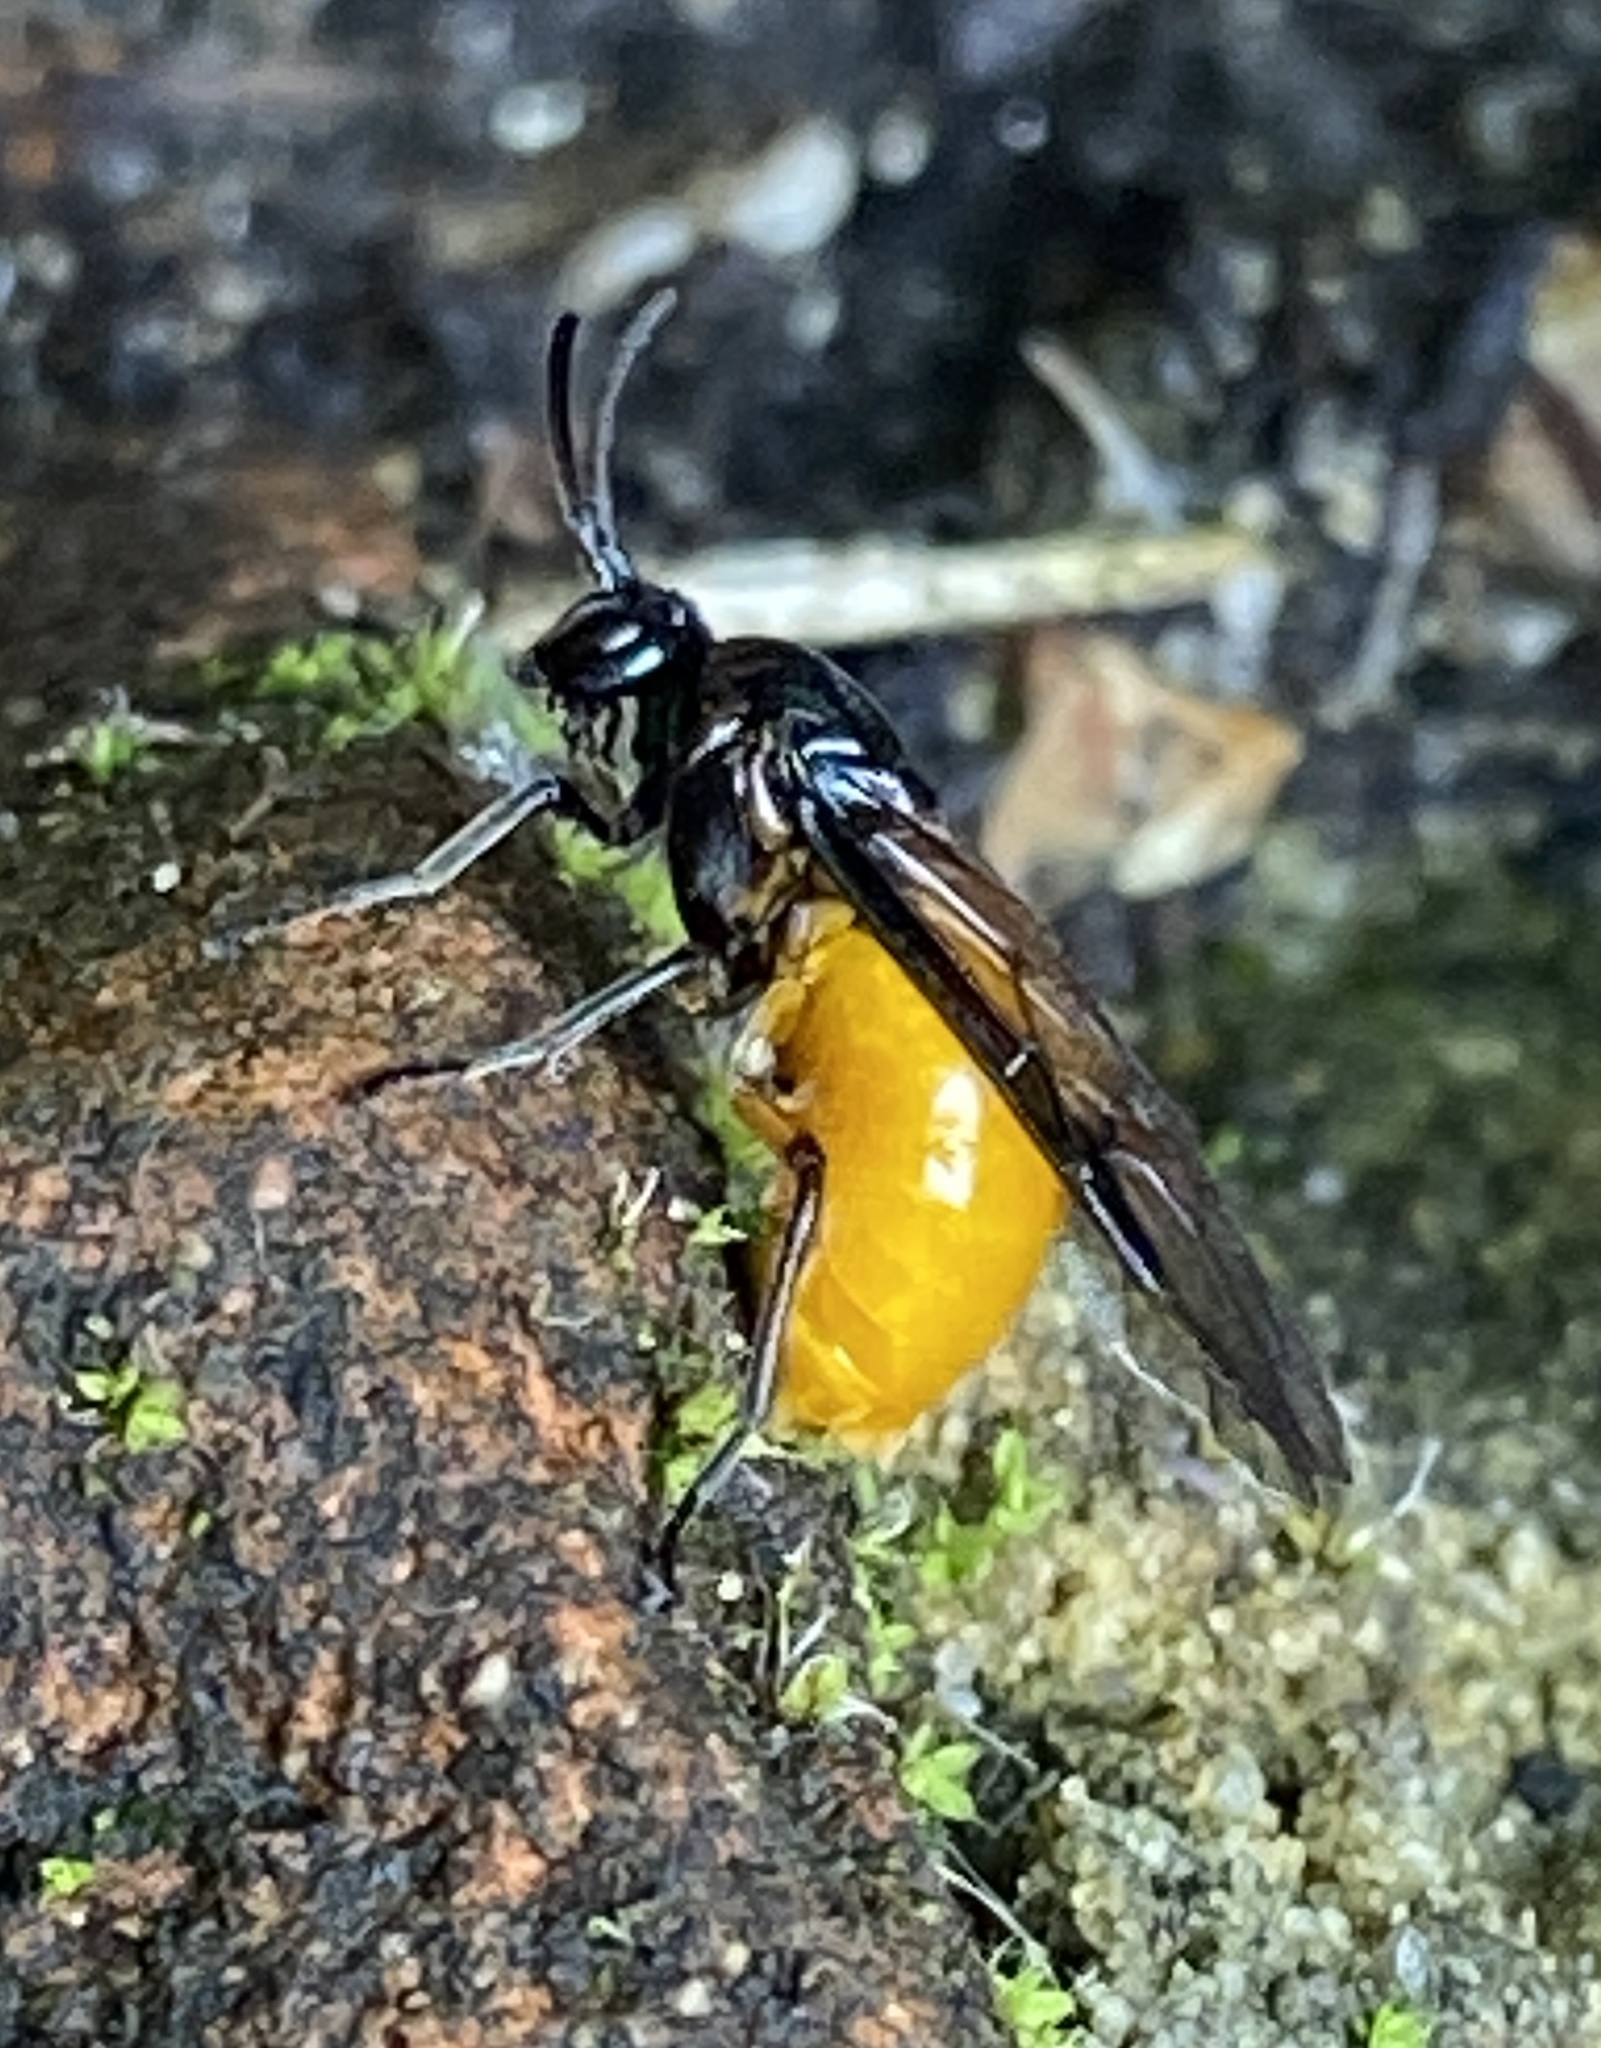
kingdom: Animalia
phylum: Arthropoda
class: Insecta
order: Hymenoptera
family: Argidae
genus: Arge
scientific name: Arge pagana
